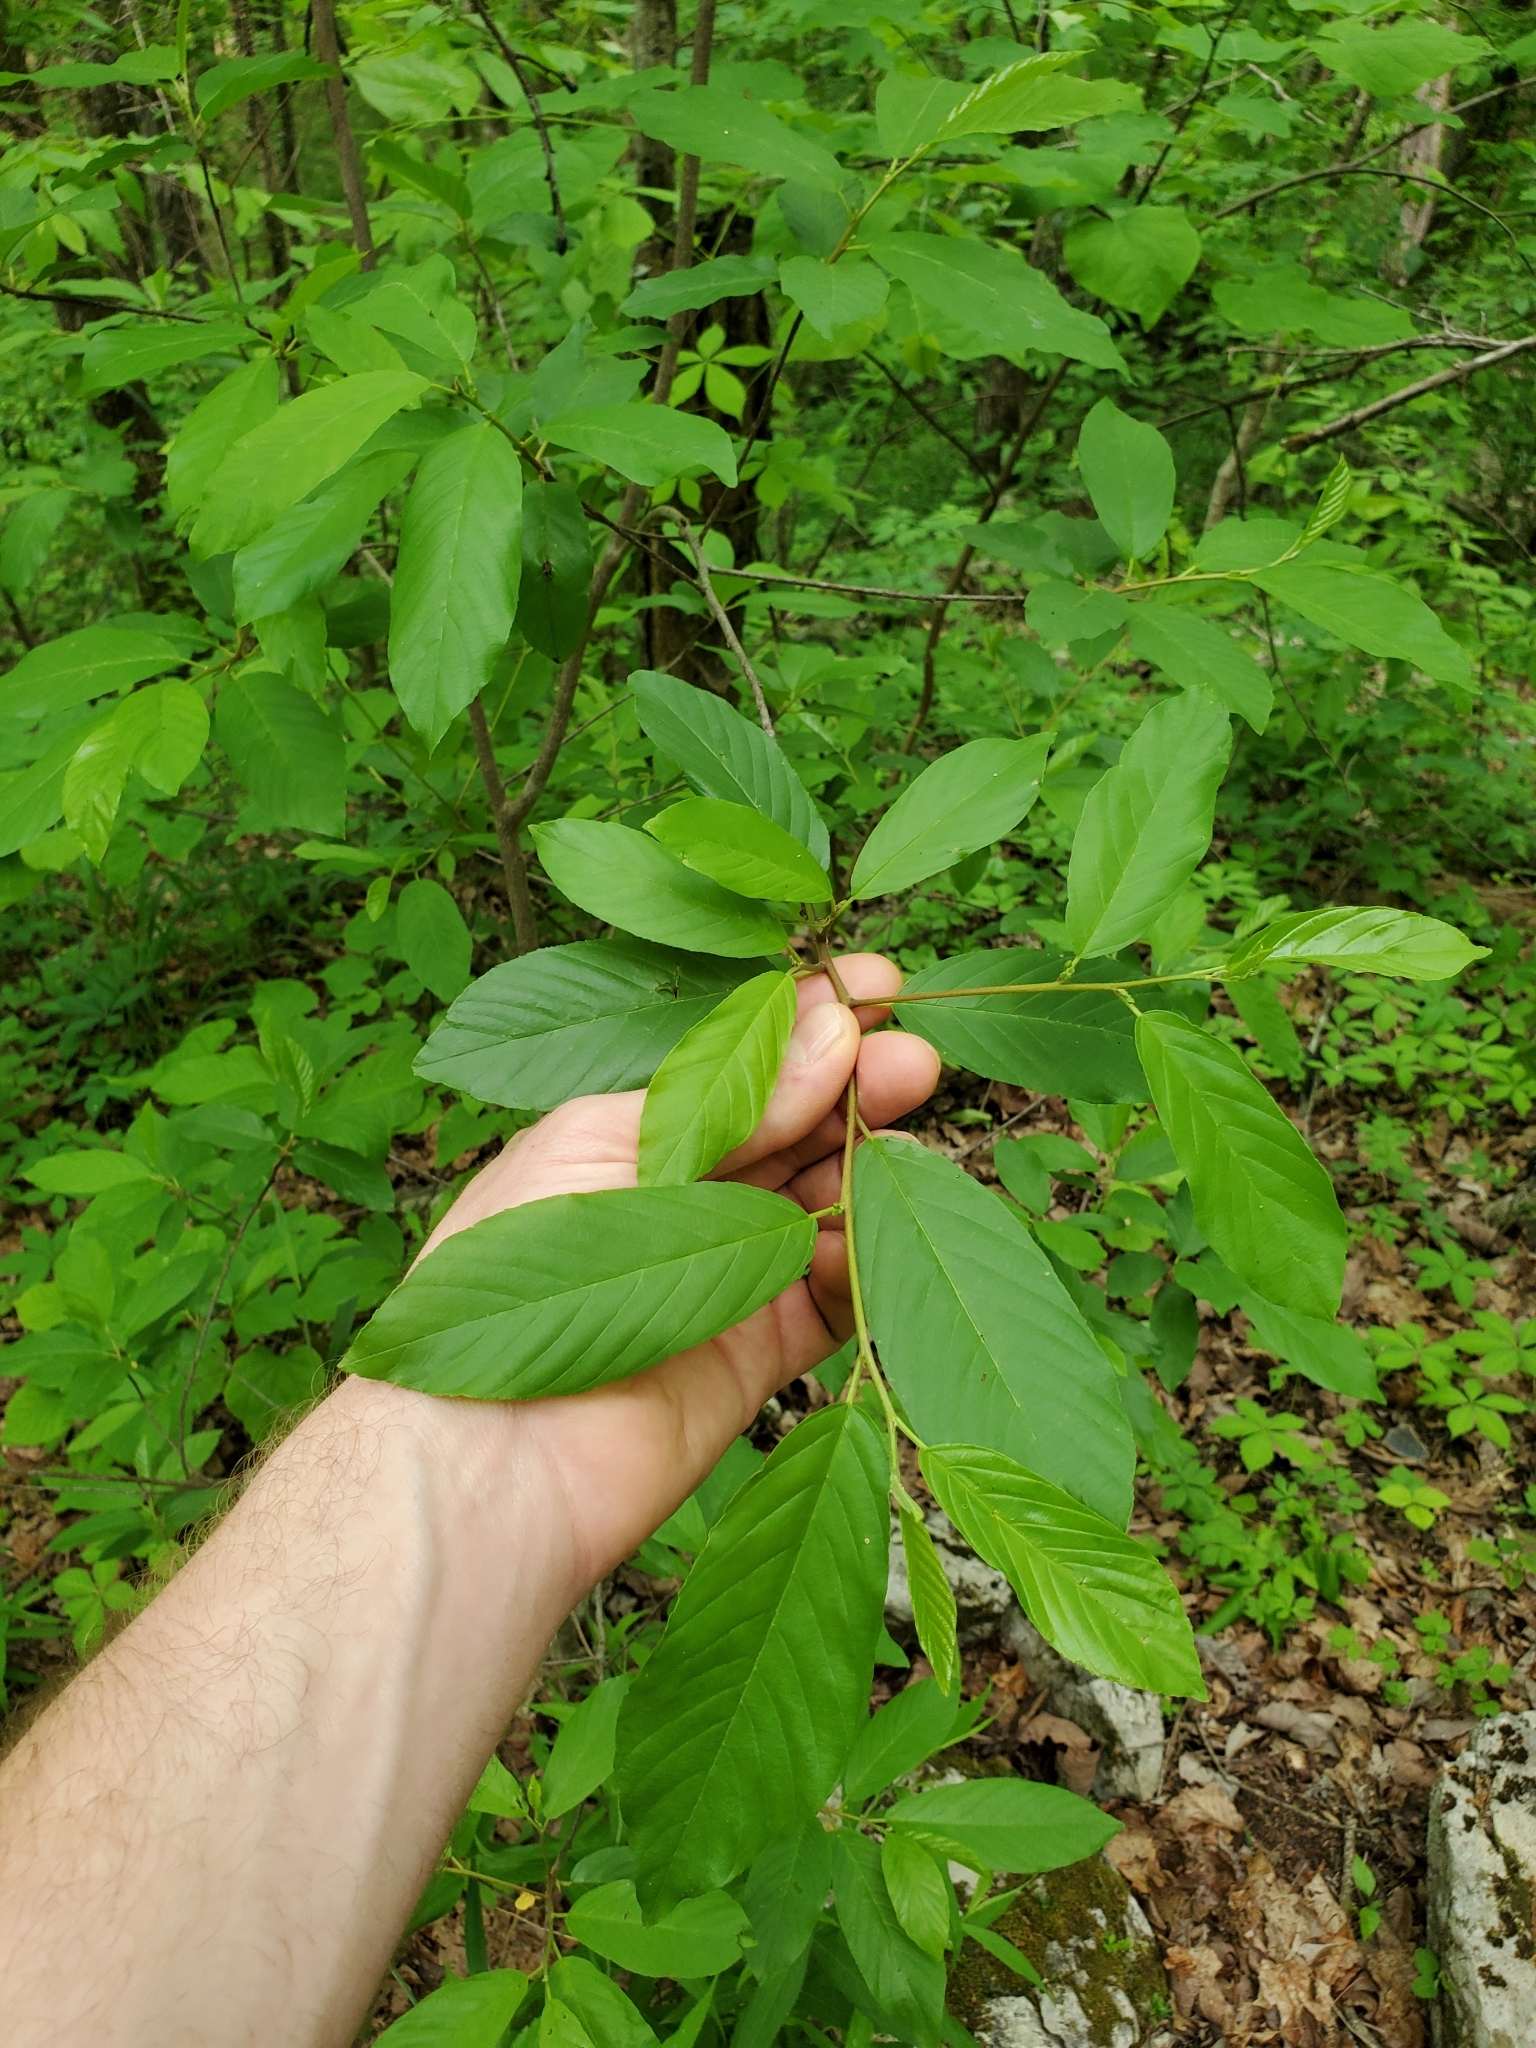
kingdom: Plantae
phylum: Tracheophyta
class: Magnoliopsida
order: Rosales
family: Rhamnaceae
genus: Frangula
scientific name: Frangula caroliniana
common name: Carolina buckthorn
